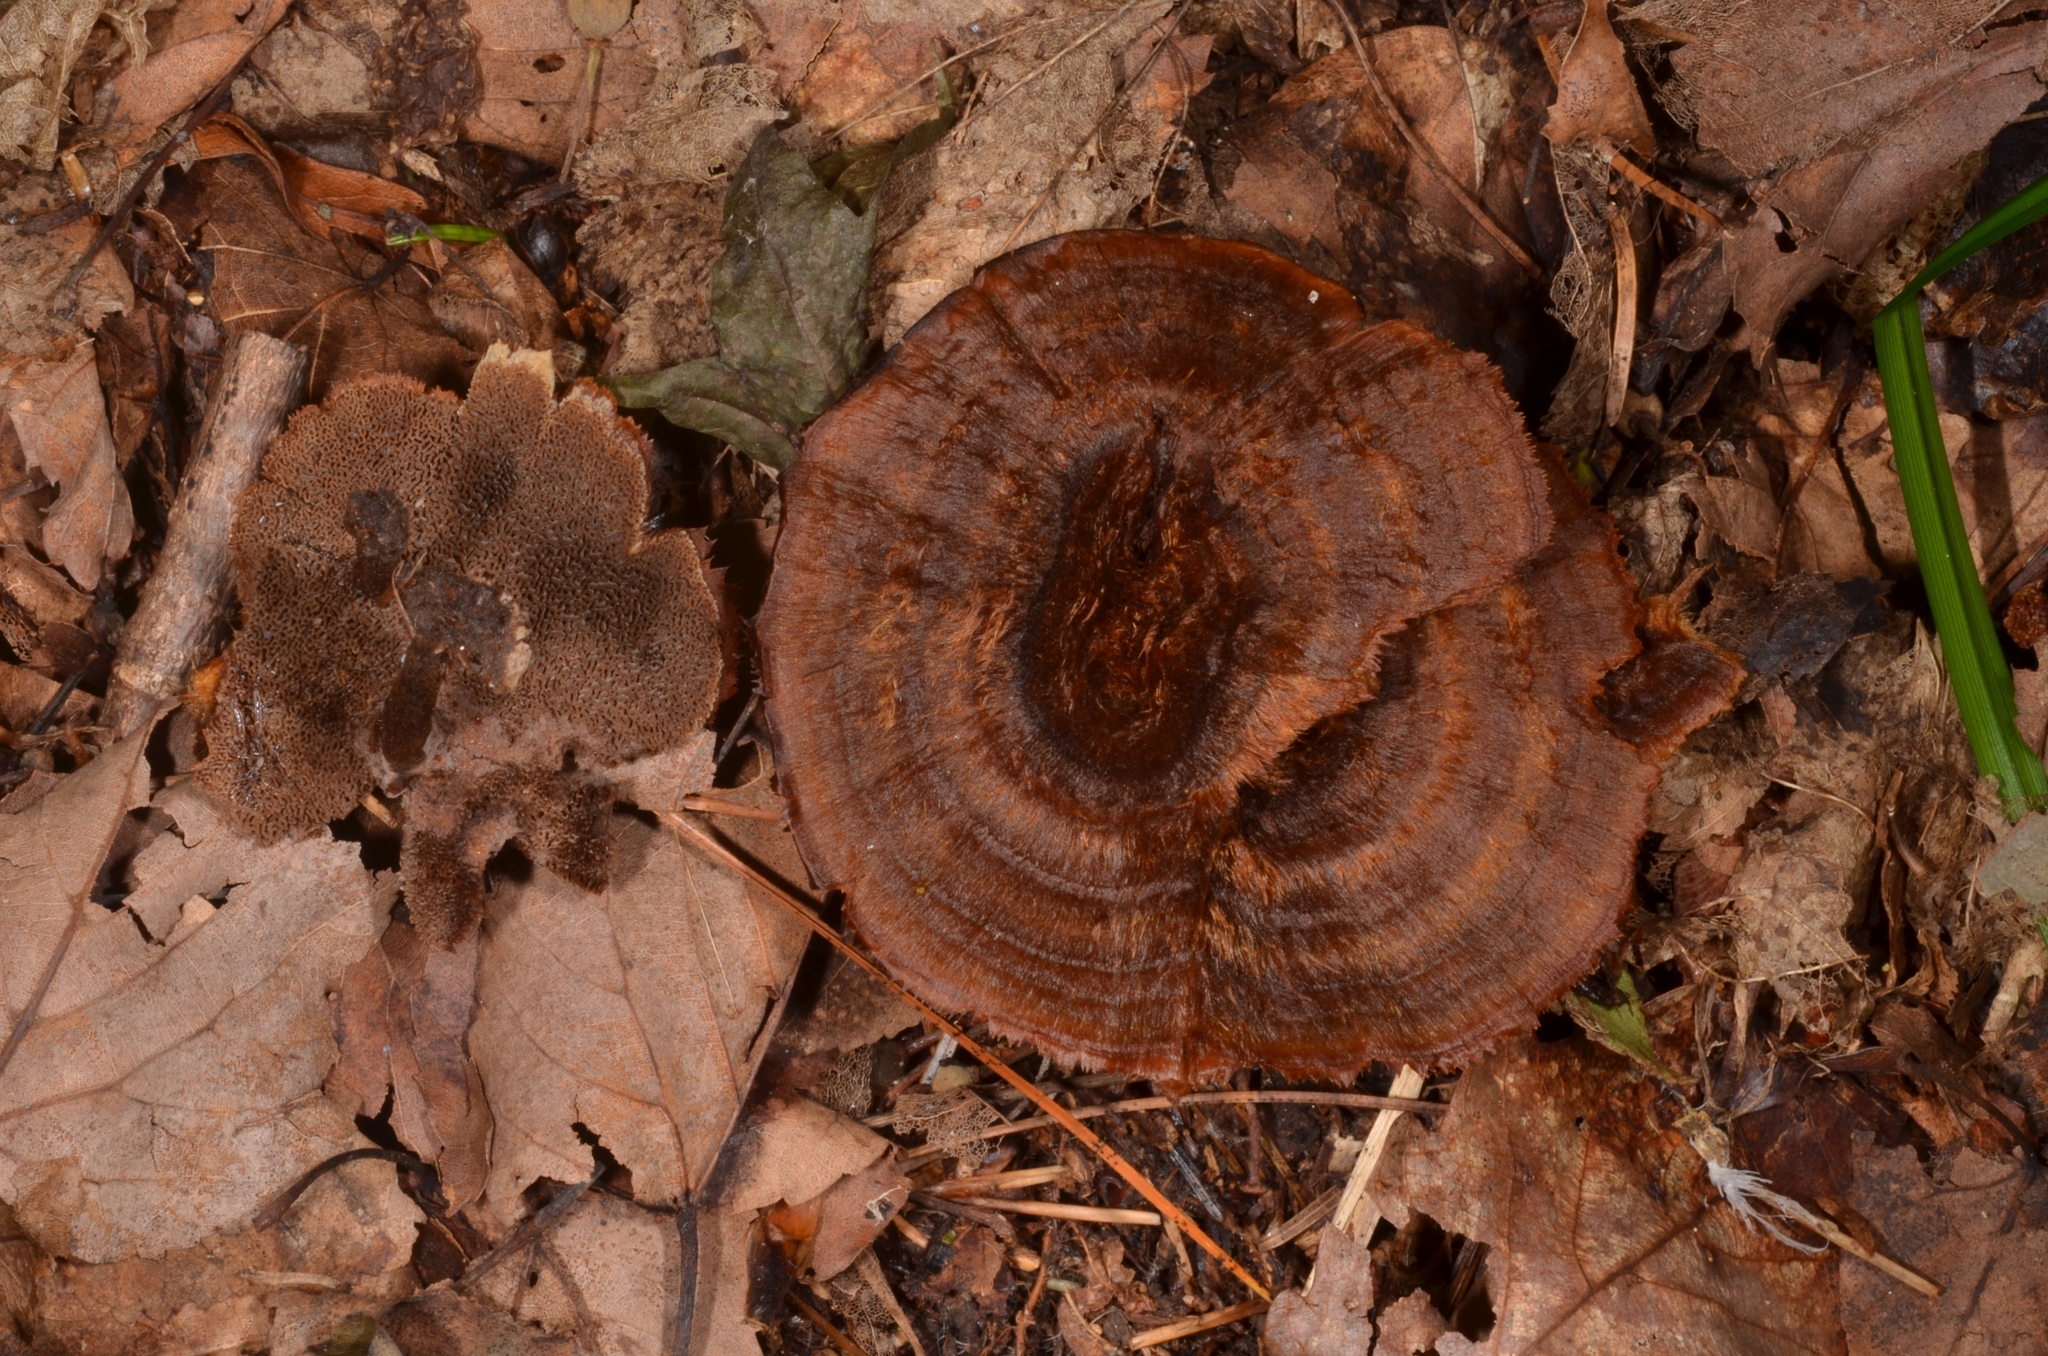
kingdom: Fungi
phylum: Basidiomycota
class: Agaricomycetes
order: Hymenochaetales
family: Hymenochaetaceae
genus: Coltricia
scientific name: Coltricia cinnamomea
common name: Shiny cinnamon polypore
